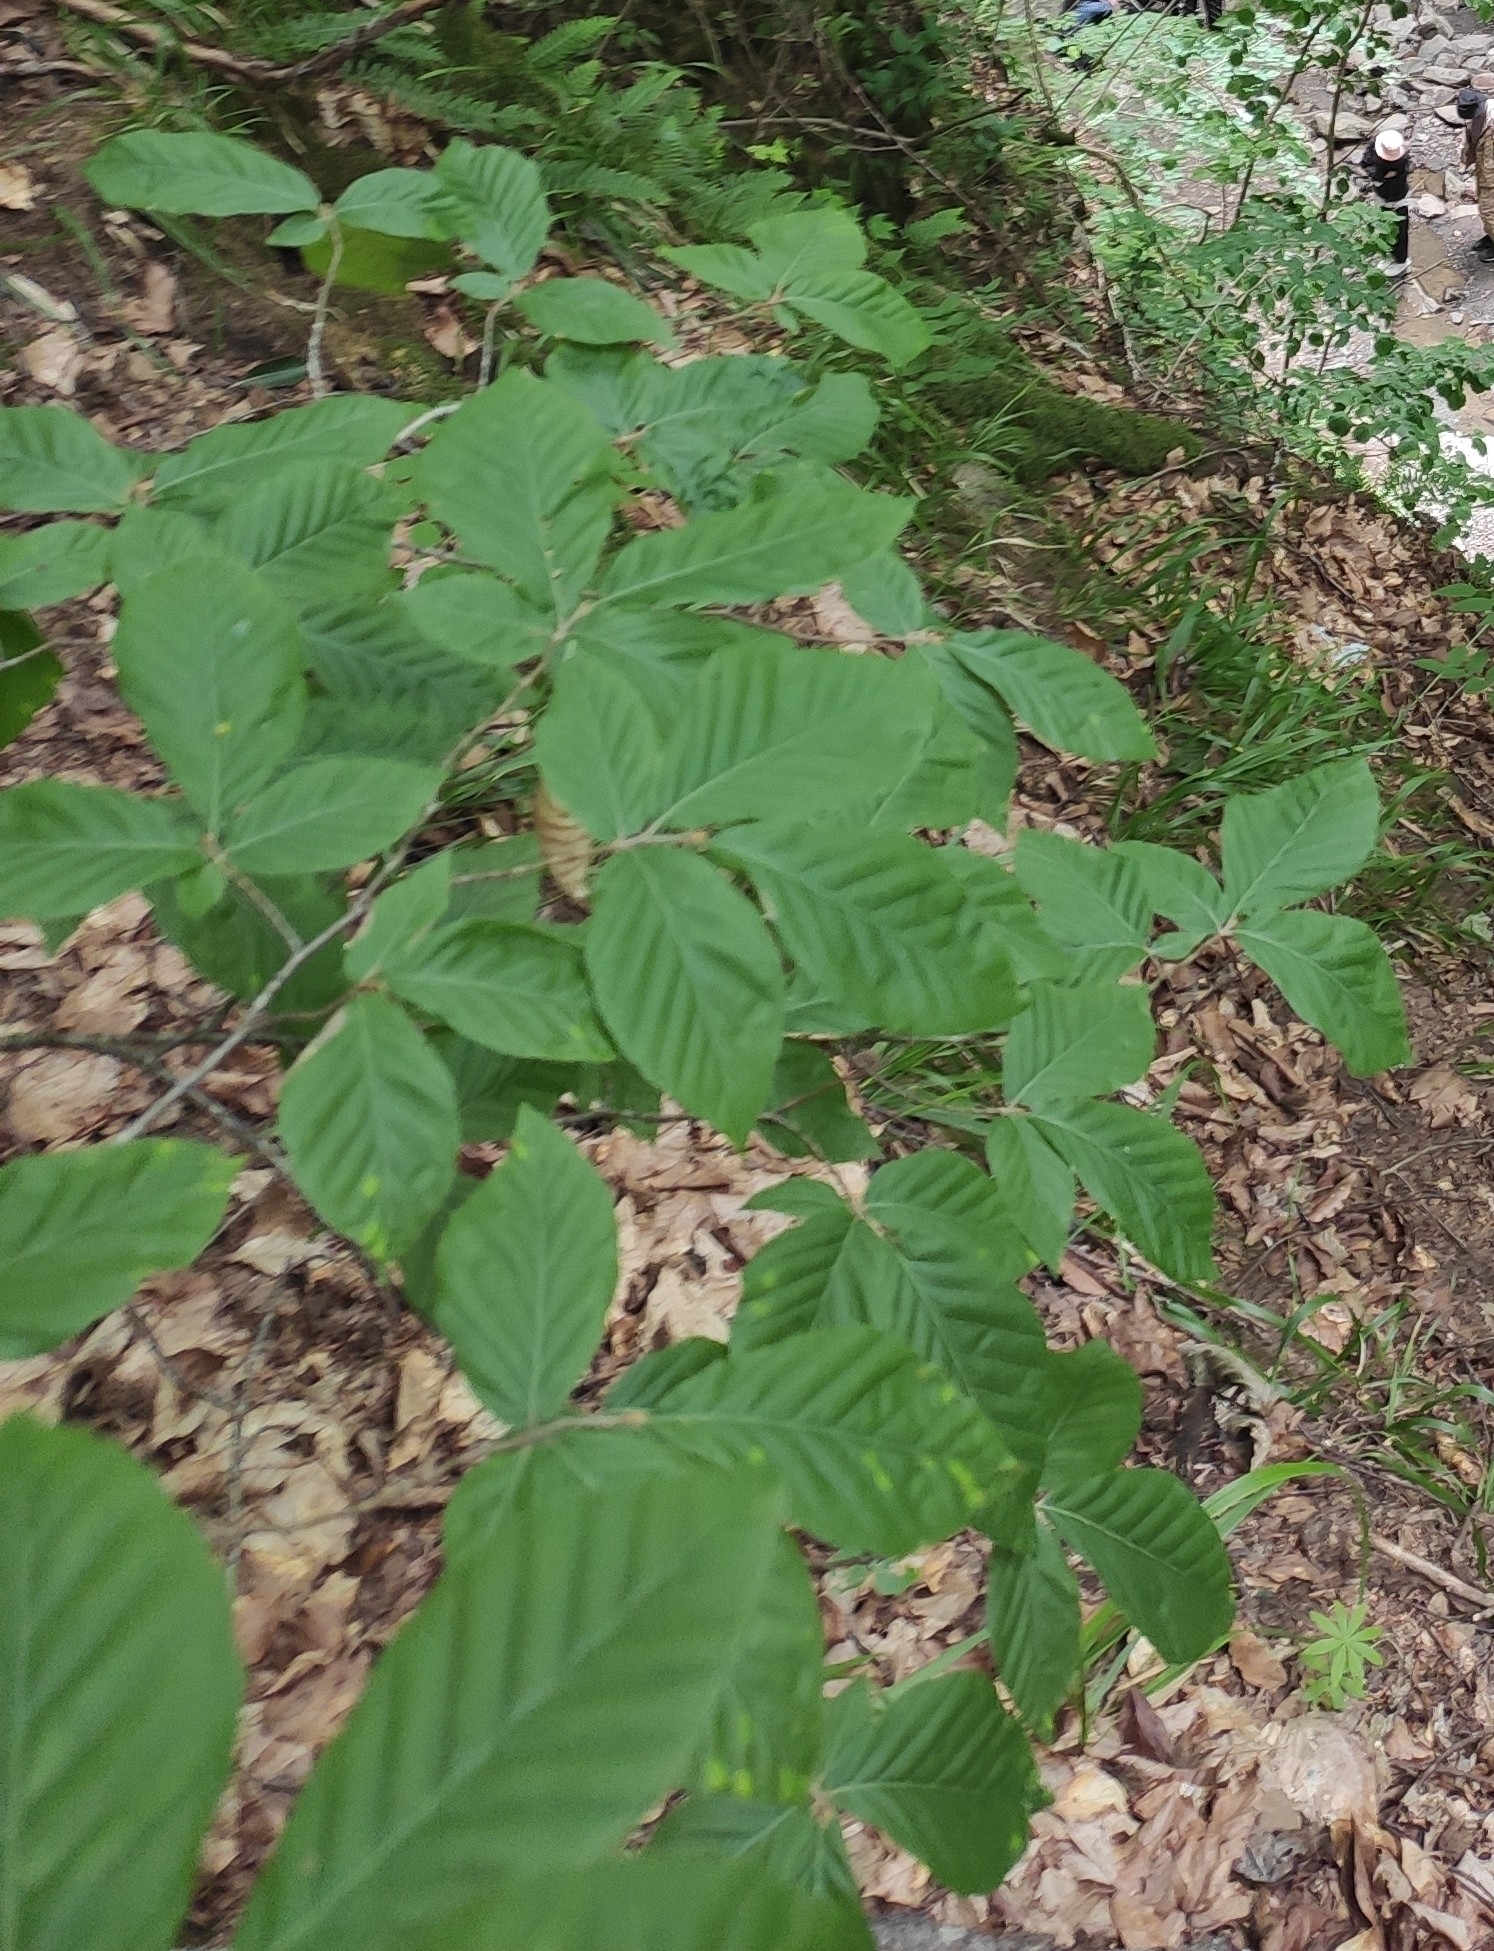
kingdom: Plantae
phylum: Tracheophyta
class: Magnoliopsida
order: Fagales
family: Fagaceae
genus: Fagus
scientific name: Fagus orientalis
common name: Oriental beech
